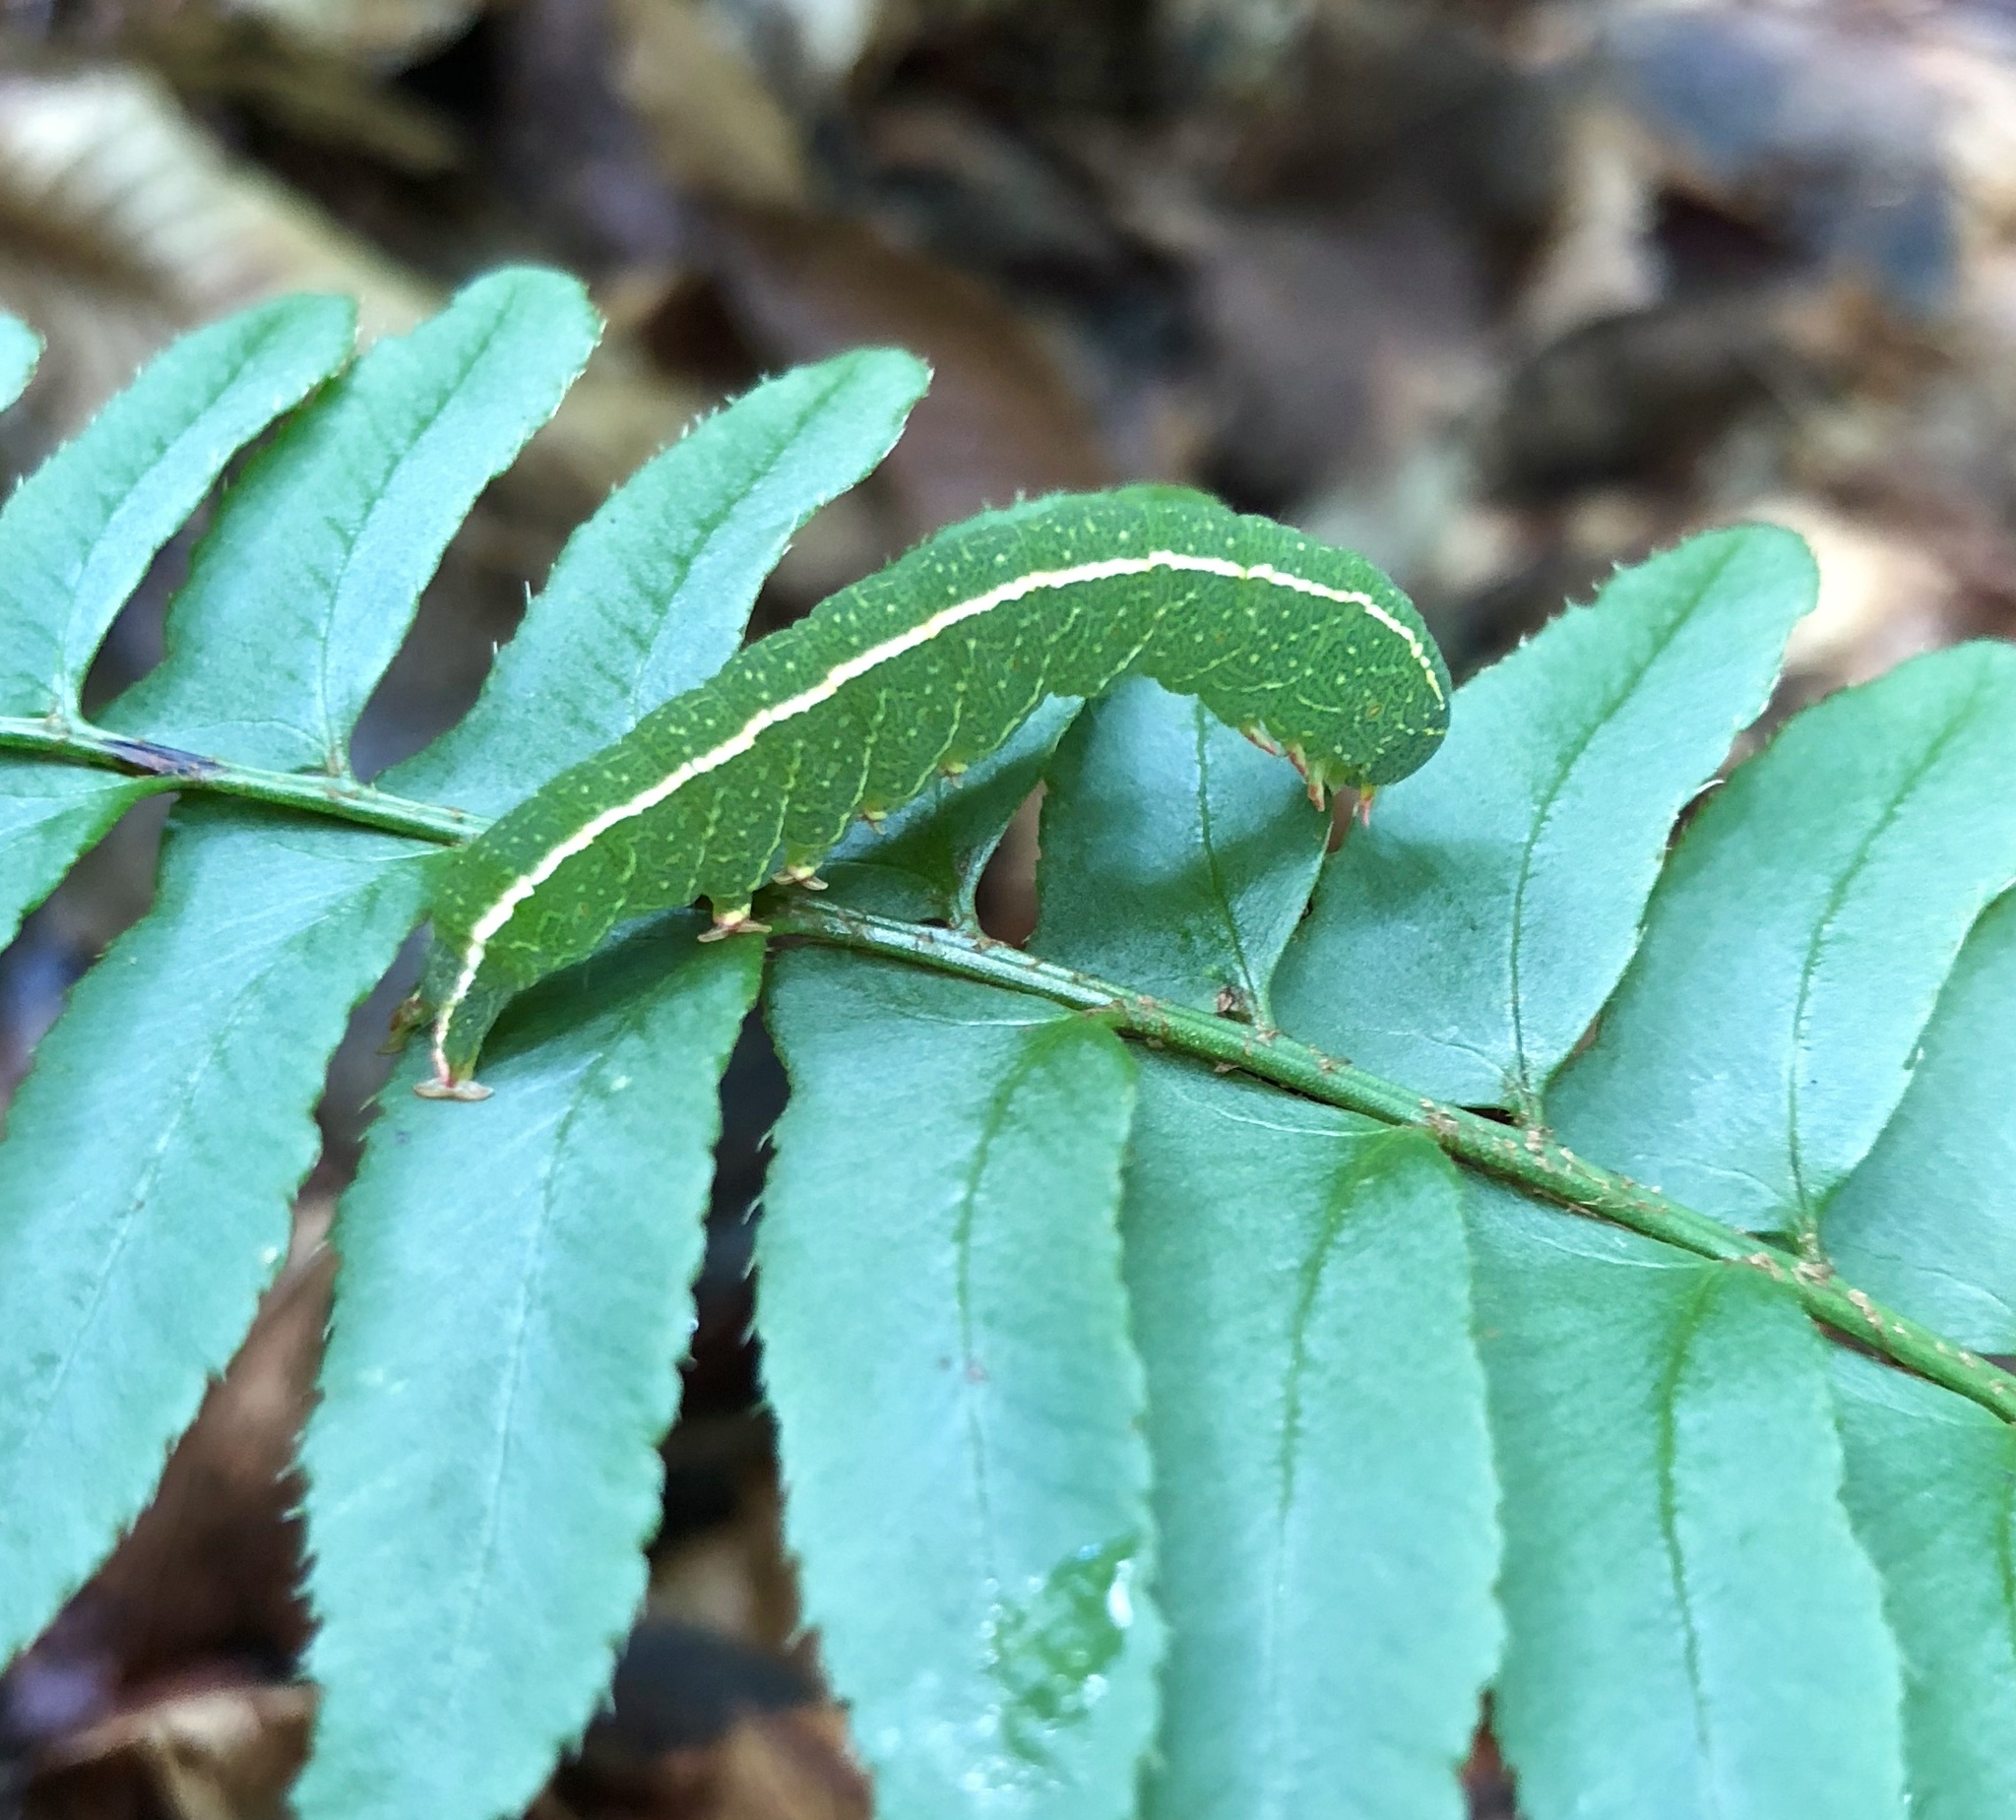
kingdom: Animalia
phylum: Arthropoda
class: Insecta
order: Lepidoptera
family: Erebidae
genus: Panopoda
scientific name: Panopoda rufimargo
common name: Red-lined panopoda moth
